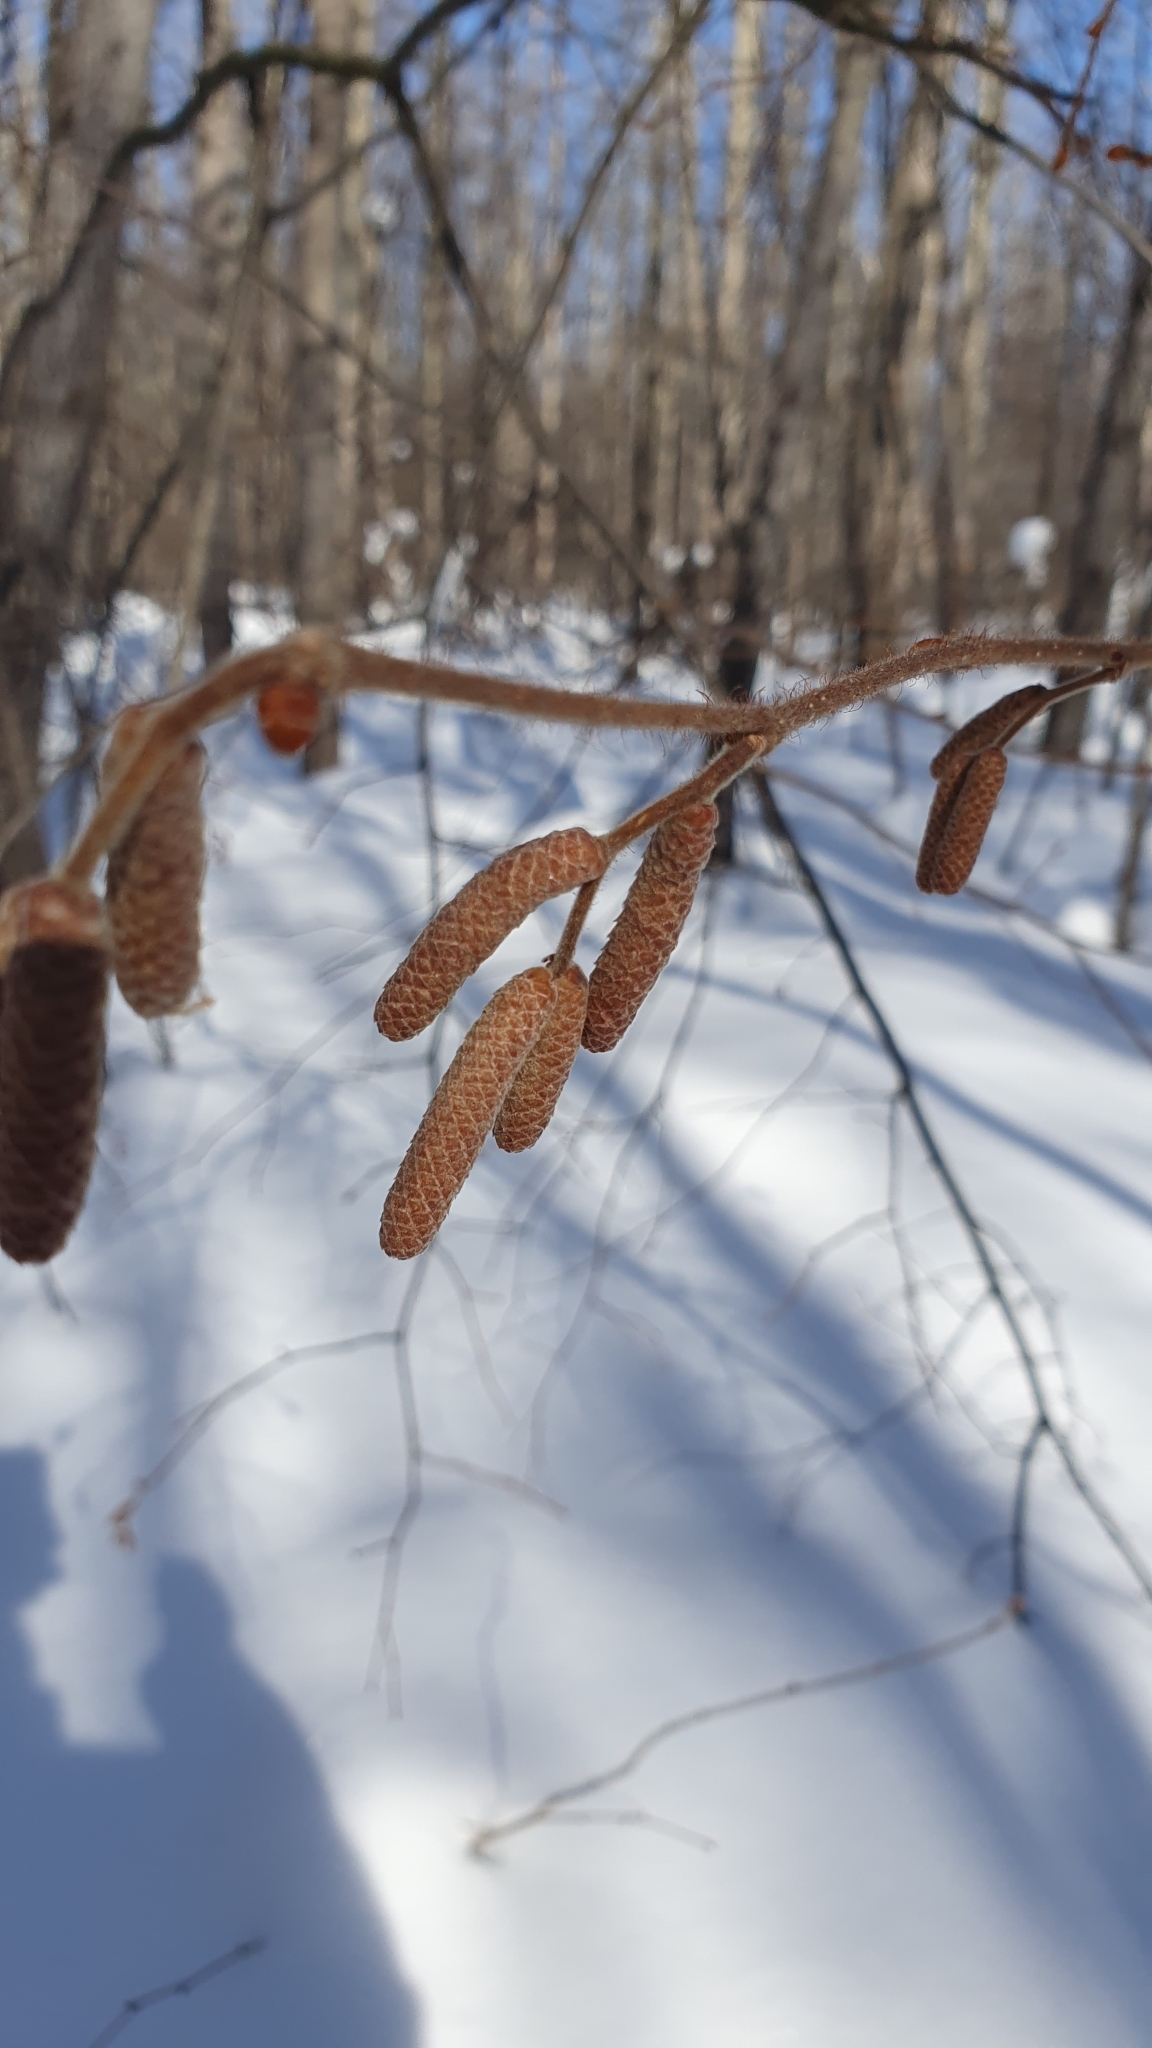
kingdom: Plantae
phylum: Tracheophyta
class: Magnoliopsida
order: Fagales
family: Betulaceae
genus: Corylus
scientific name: Corylus avellana
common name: European hazel
